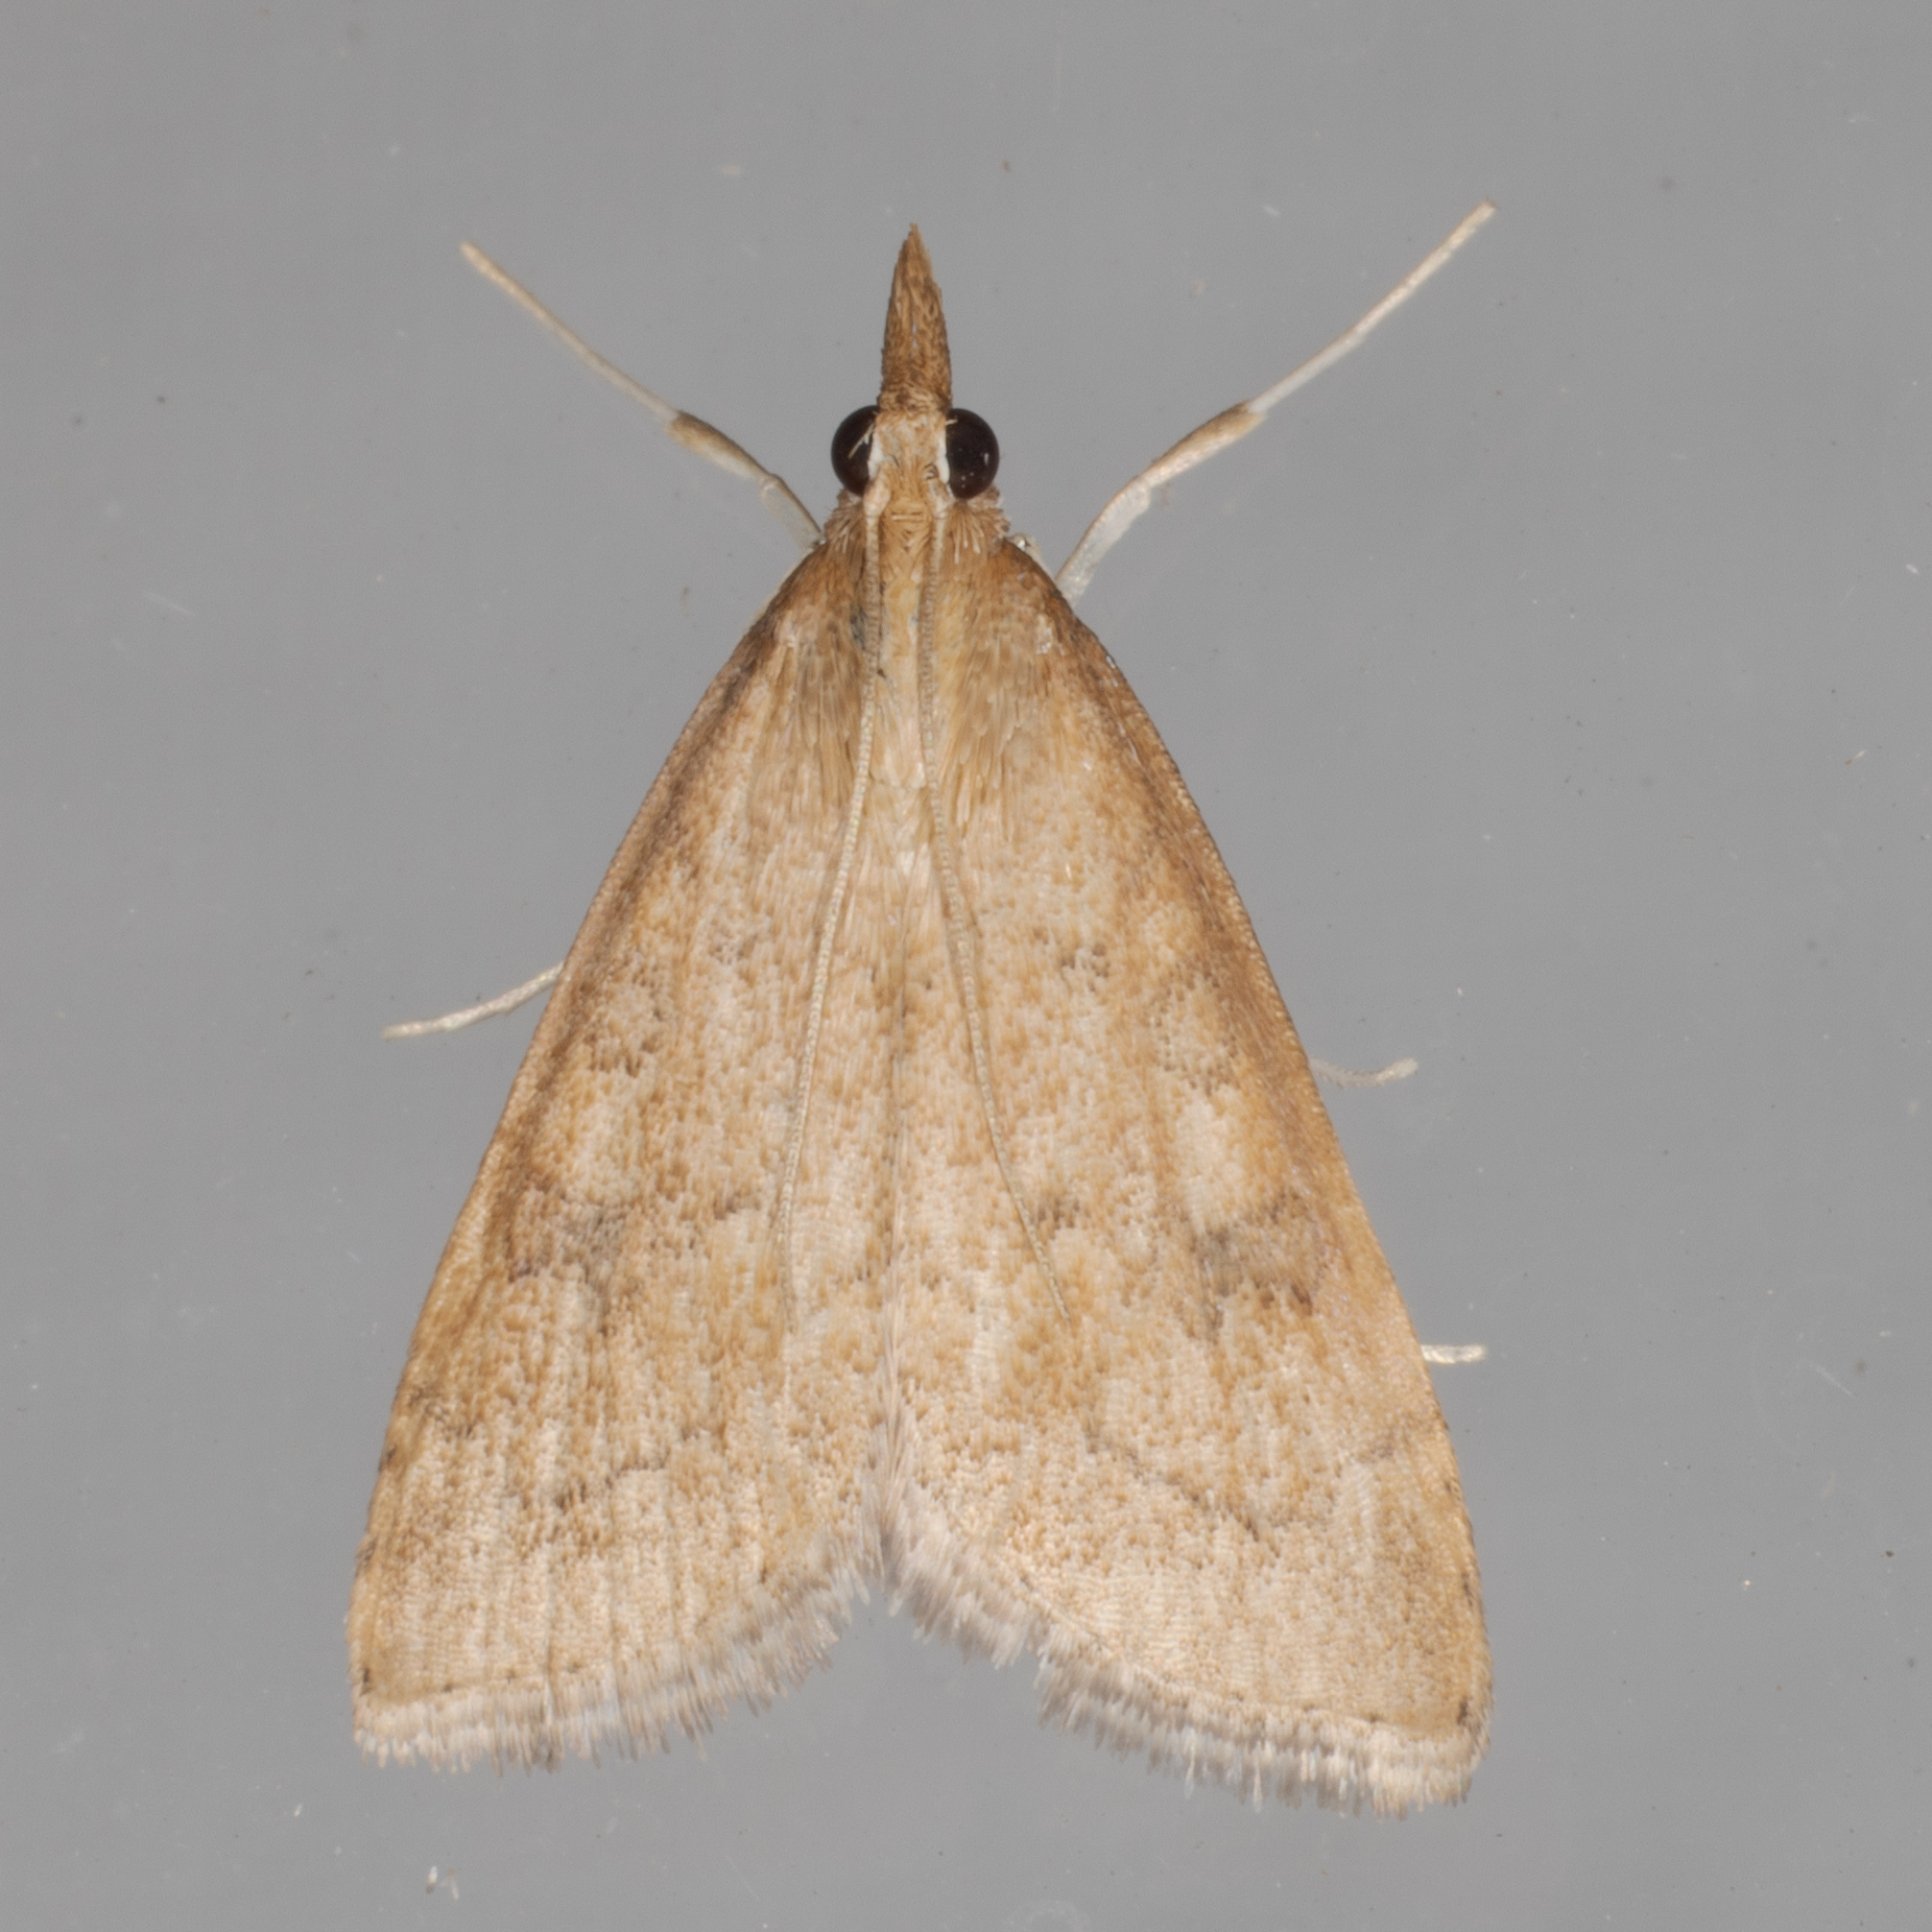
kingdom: Animalia
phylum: Arthropoda
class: Insecta
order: Lepidoptera
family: Crambidae
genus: Udea
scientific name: Udea rubigalis
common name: Celery leaftier moth
